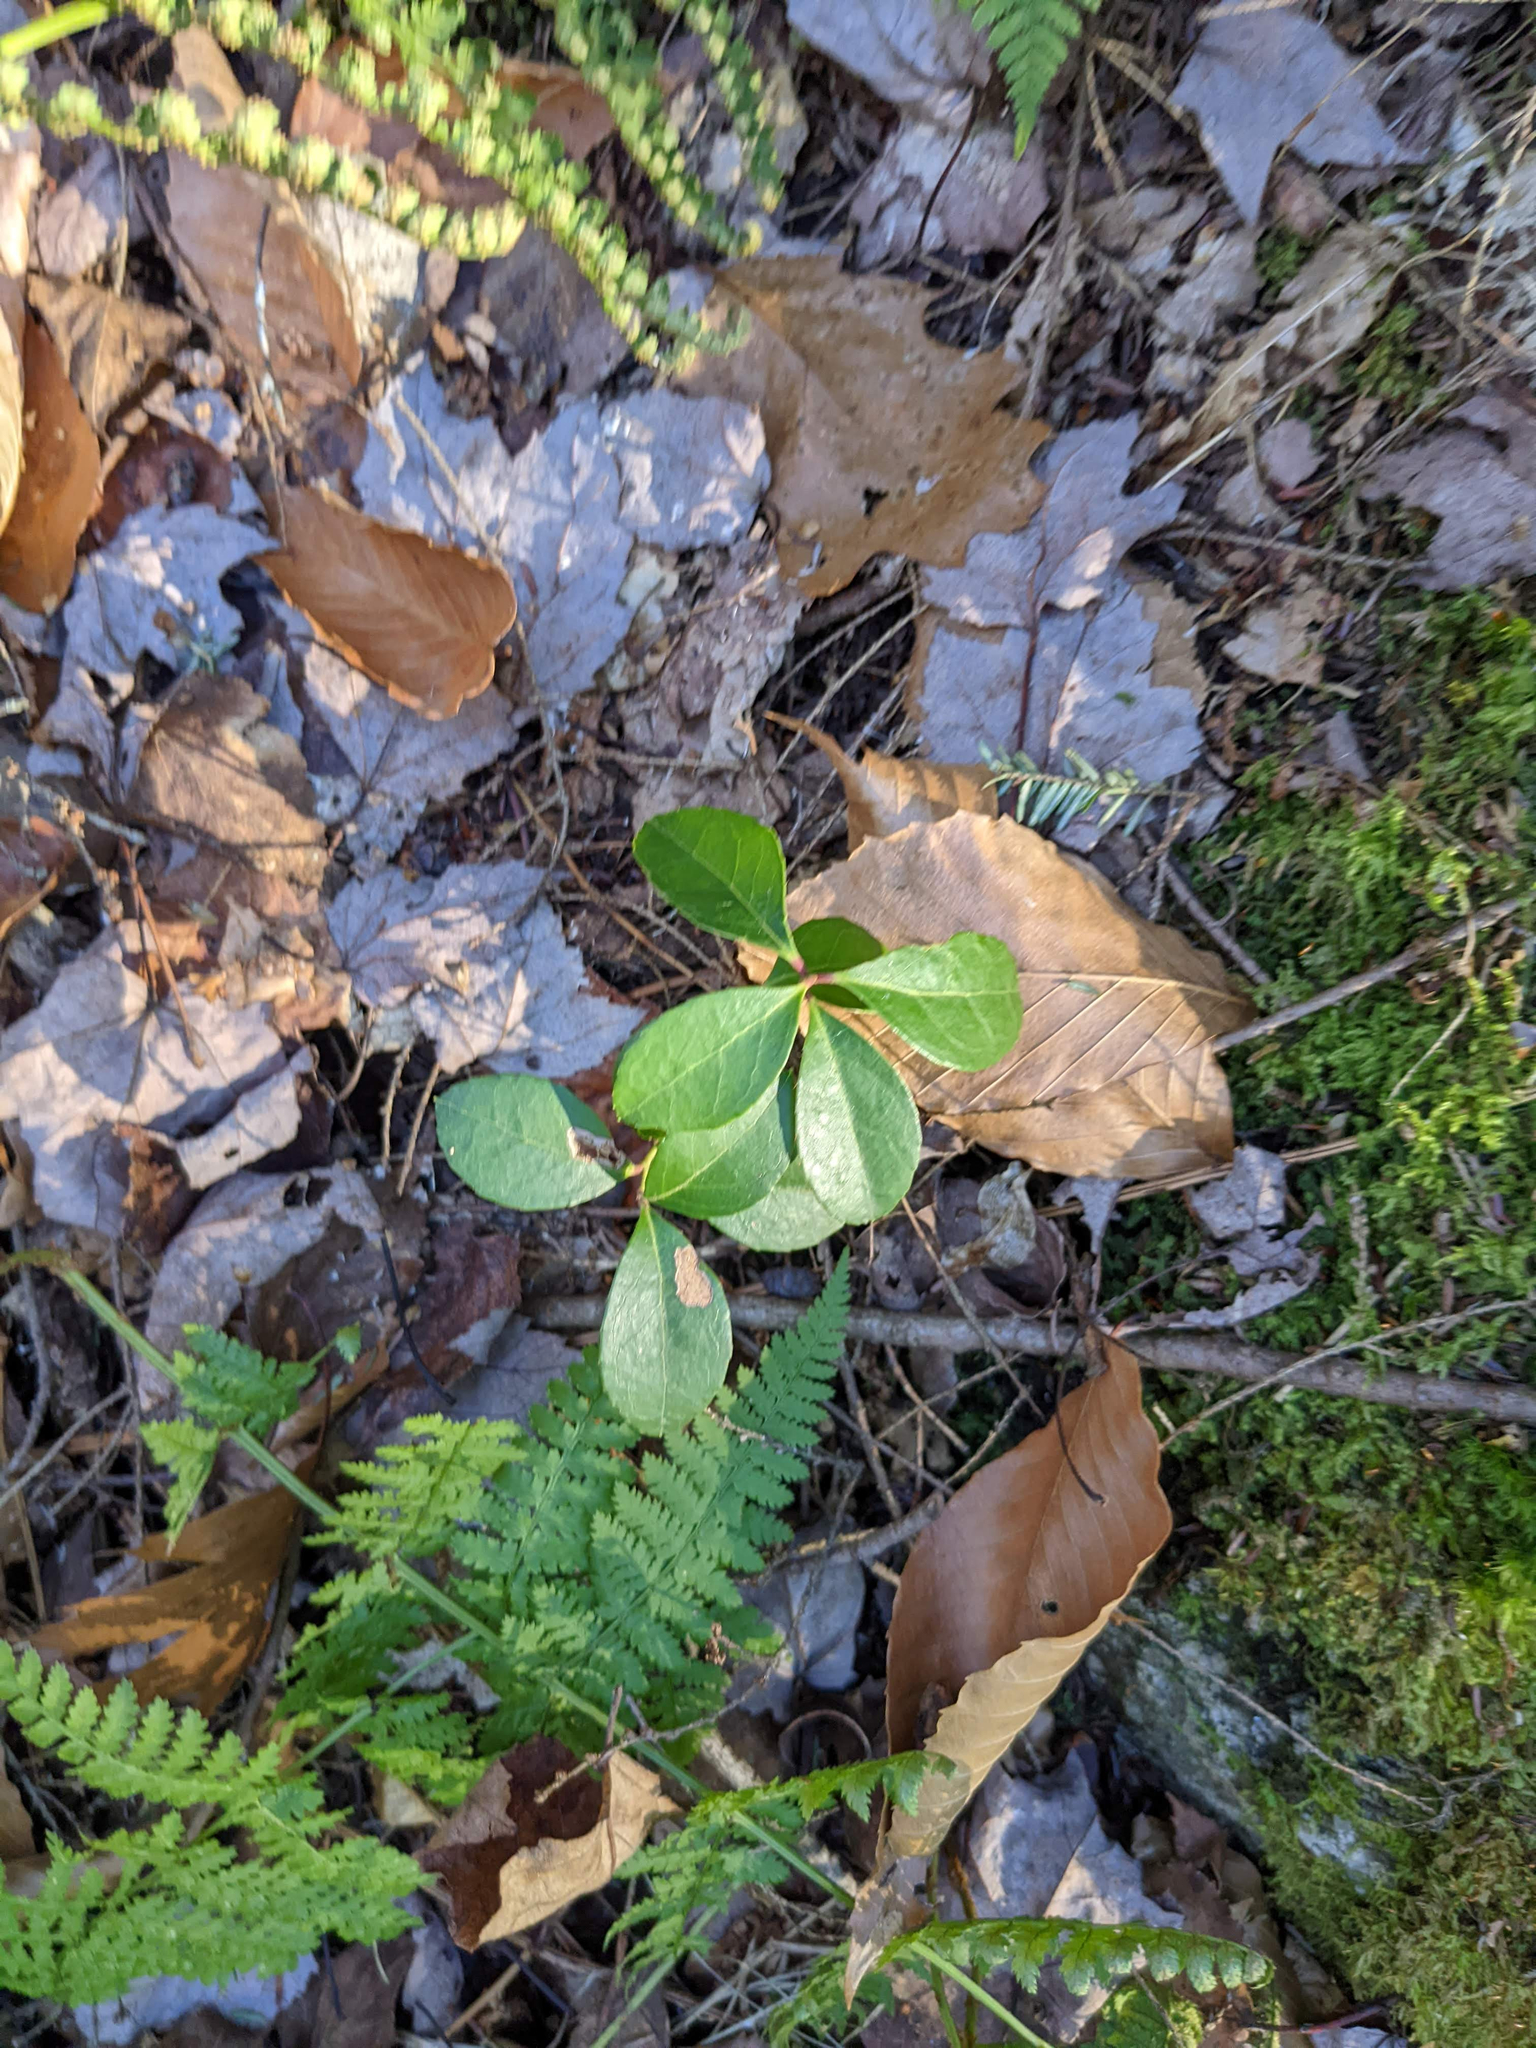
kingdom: Plantae
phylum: Tracheophyta
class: Magnoliopsida
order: Ericales
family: Ericaceae
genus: Gaultheria
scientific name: Gaultheria procumbens
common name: Checkerberry
